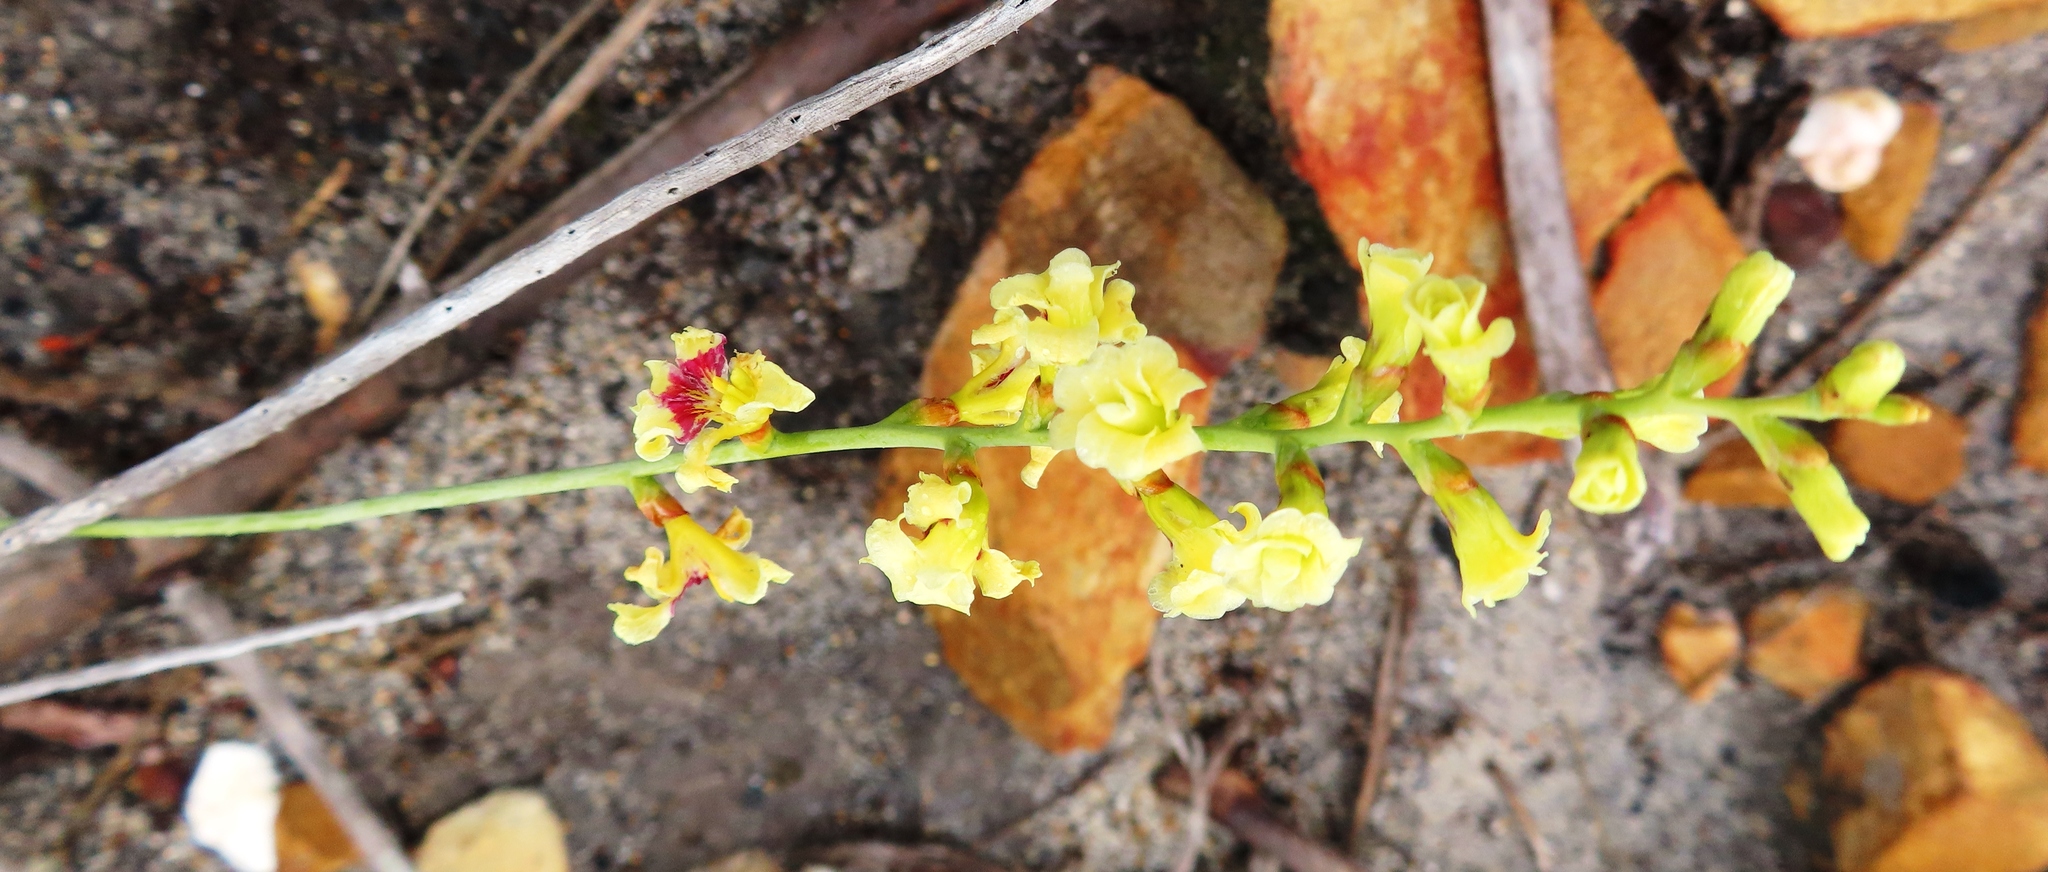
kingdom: Plantae
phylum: Tracheophyta
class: Liliopsida
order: Asparagales
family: Iridaceae
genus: Tritoniopsis
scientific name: Tritoniopsis unguicularis
